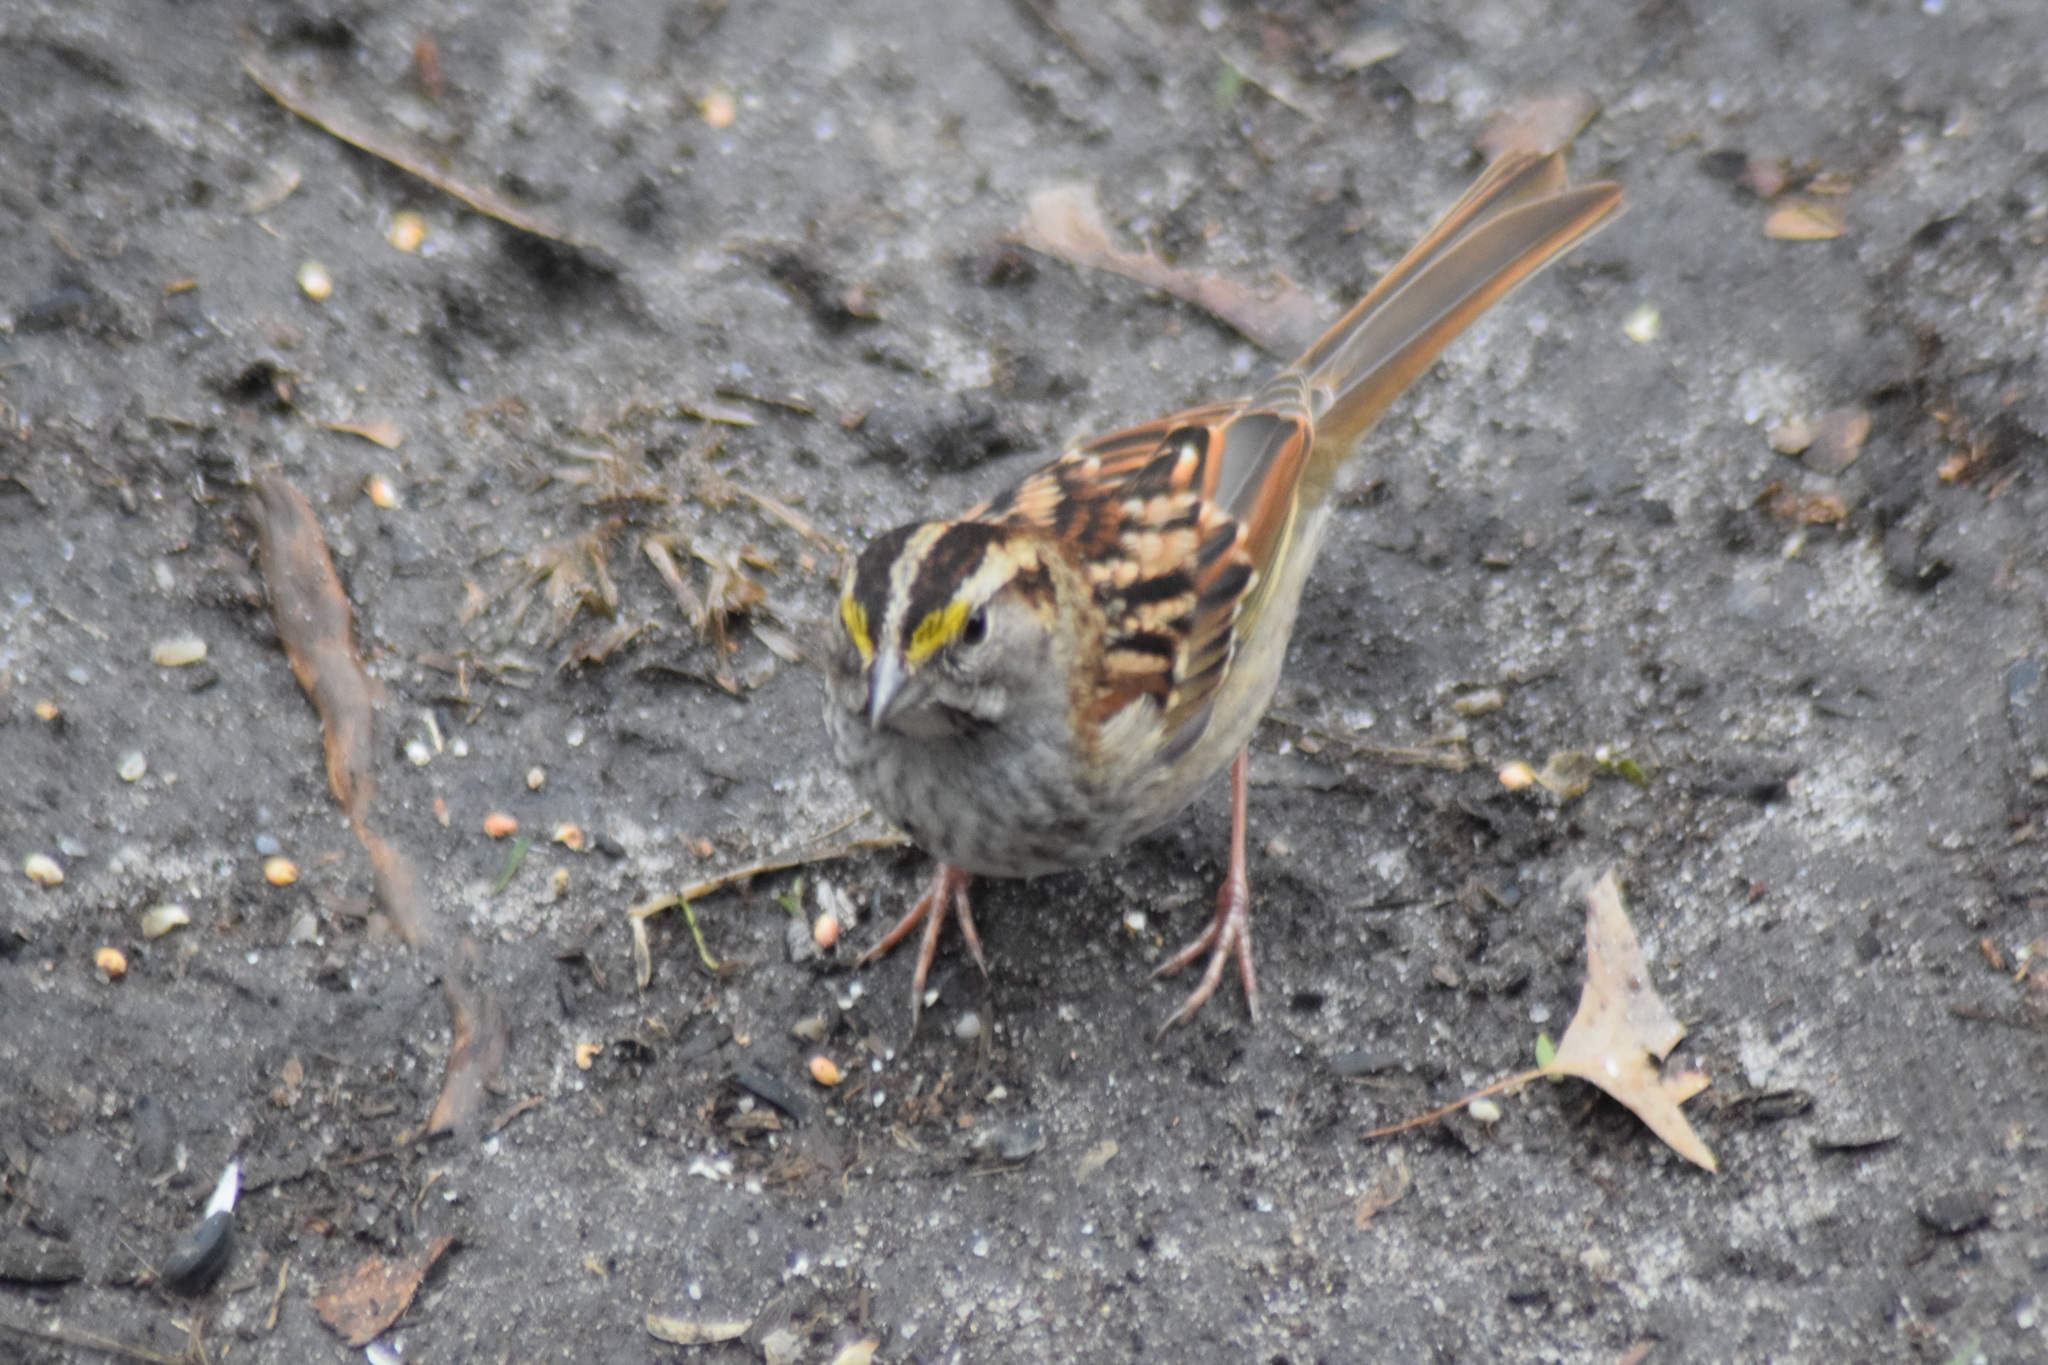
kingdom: Animalia
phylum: Chordata
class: Aves
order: Passeriformes
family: Passerellidae
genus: Zonotrichia
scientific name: Zonotrichia albicollis
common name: White-throated sparrow
